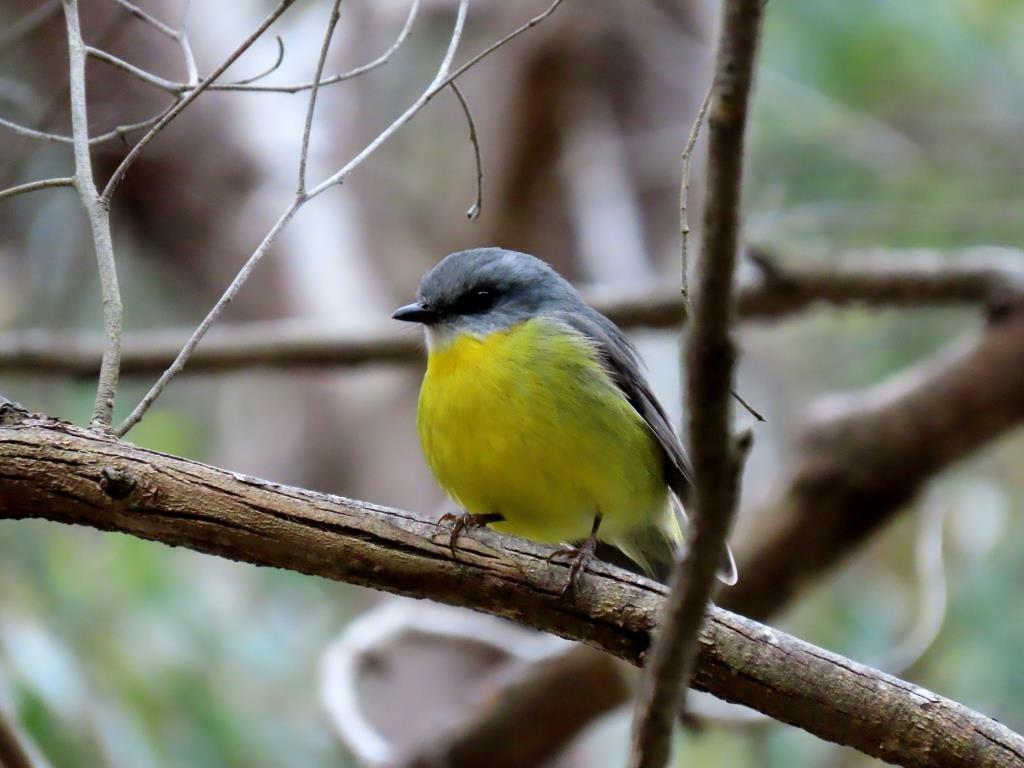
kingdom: Animalia
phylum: Chordata
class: Aves
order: Passeriformes
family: Petroicidae
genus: Eopsaltria
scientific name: Eopsaltria australis
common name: Eastern yellow robin
